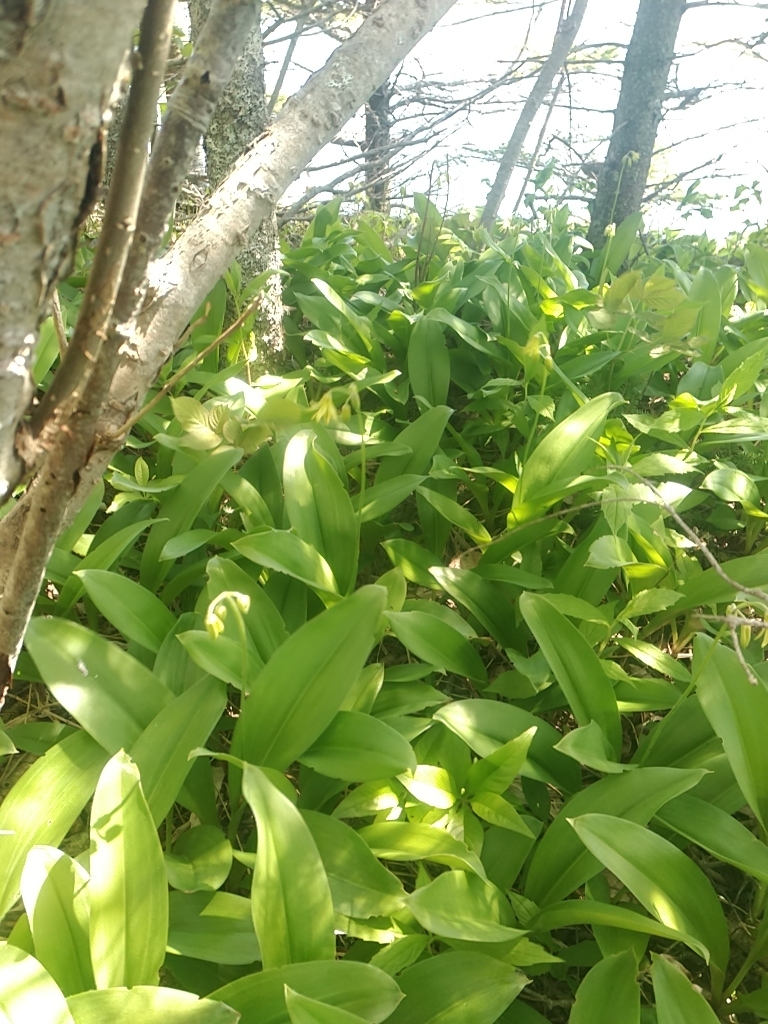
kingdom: Plantae
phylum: Tracheophyta
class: Liliopsida
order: Liliales
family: Liliaceae
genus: Clintonia
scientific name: Clintonia borealis
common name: Yellow clintonia
